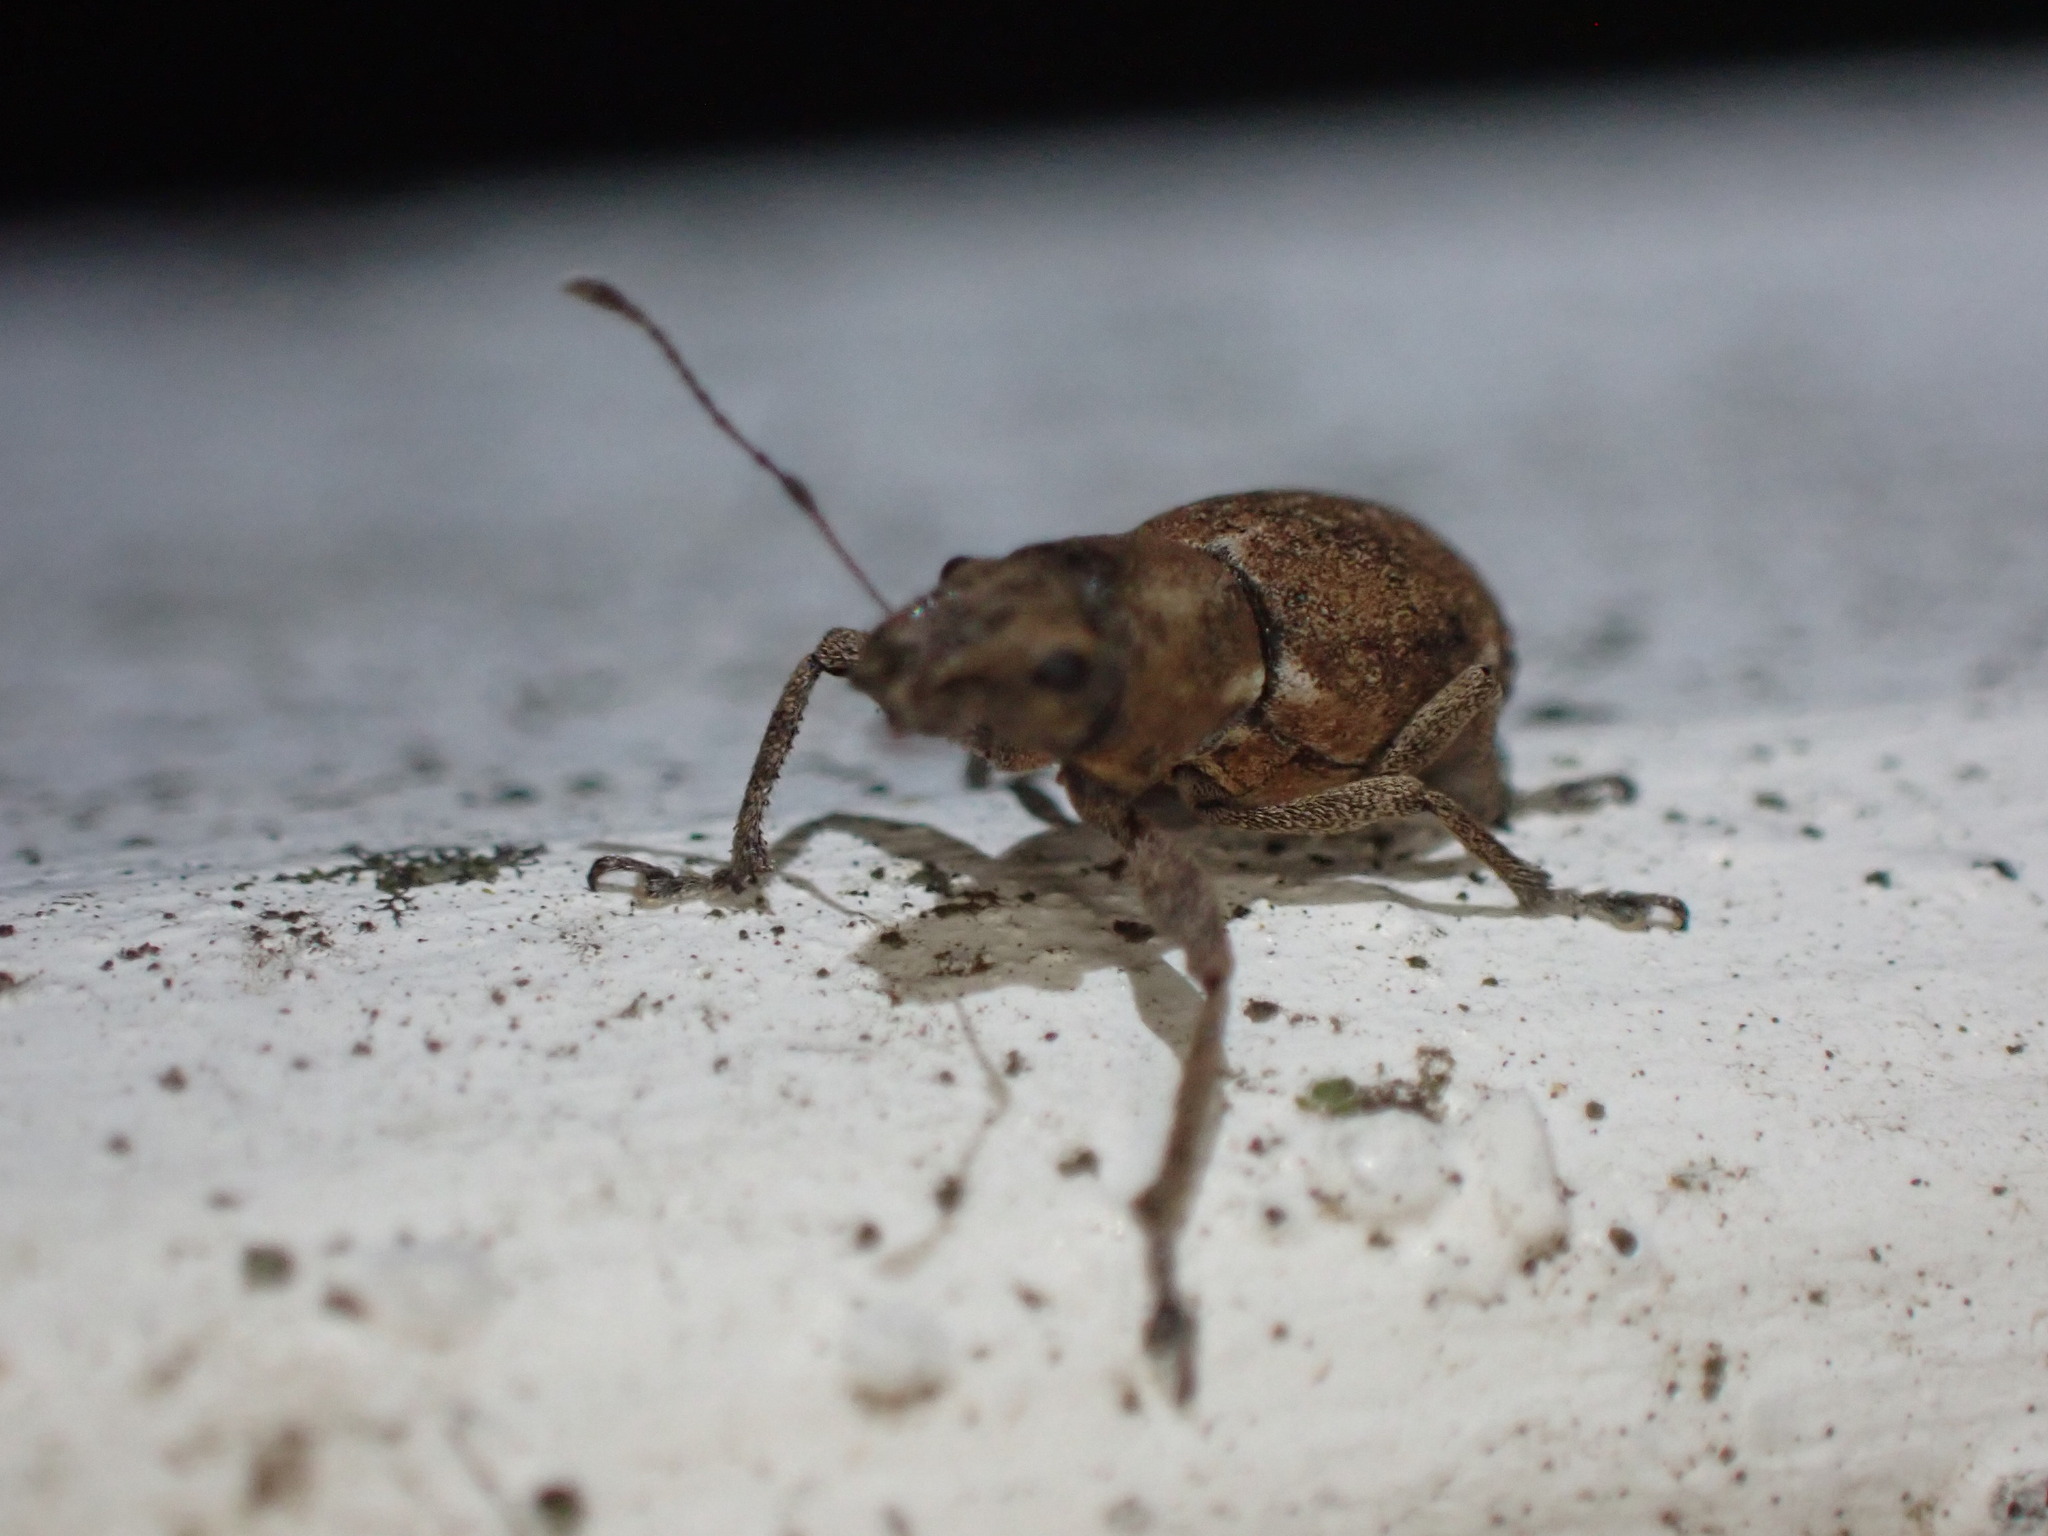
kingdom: Animalia
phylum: Arthropoda
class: Insecta
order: Coleoptera
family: Curculionidae
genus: Naupactus
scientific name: Naupactus cervinus
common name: Fuller rose beetle
